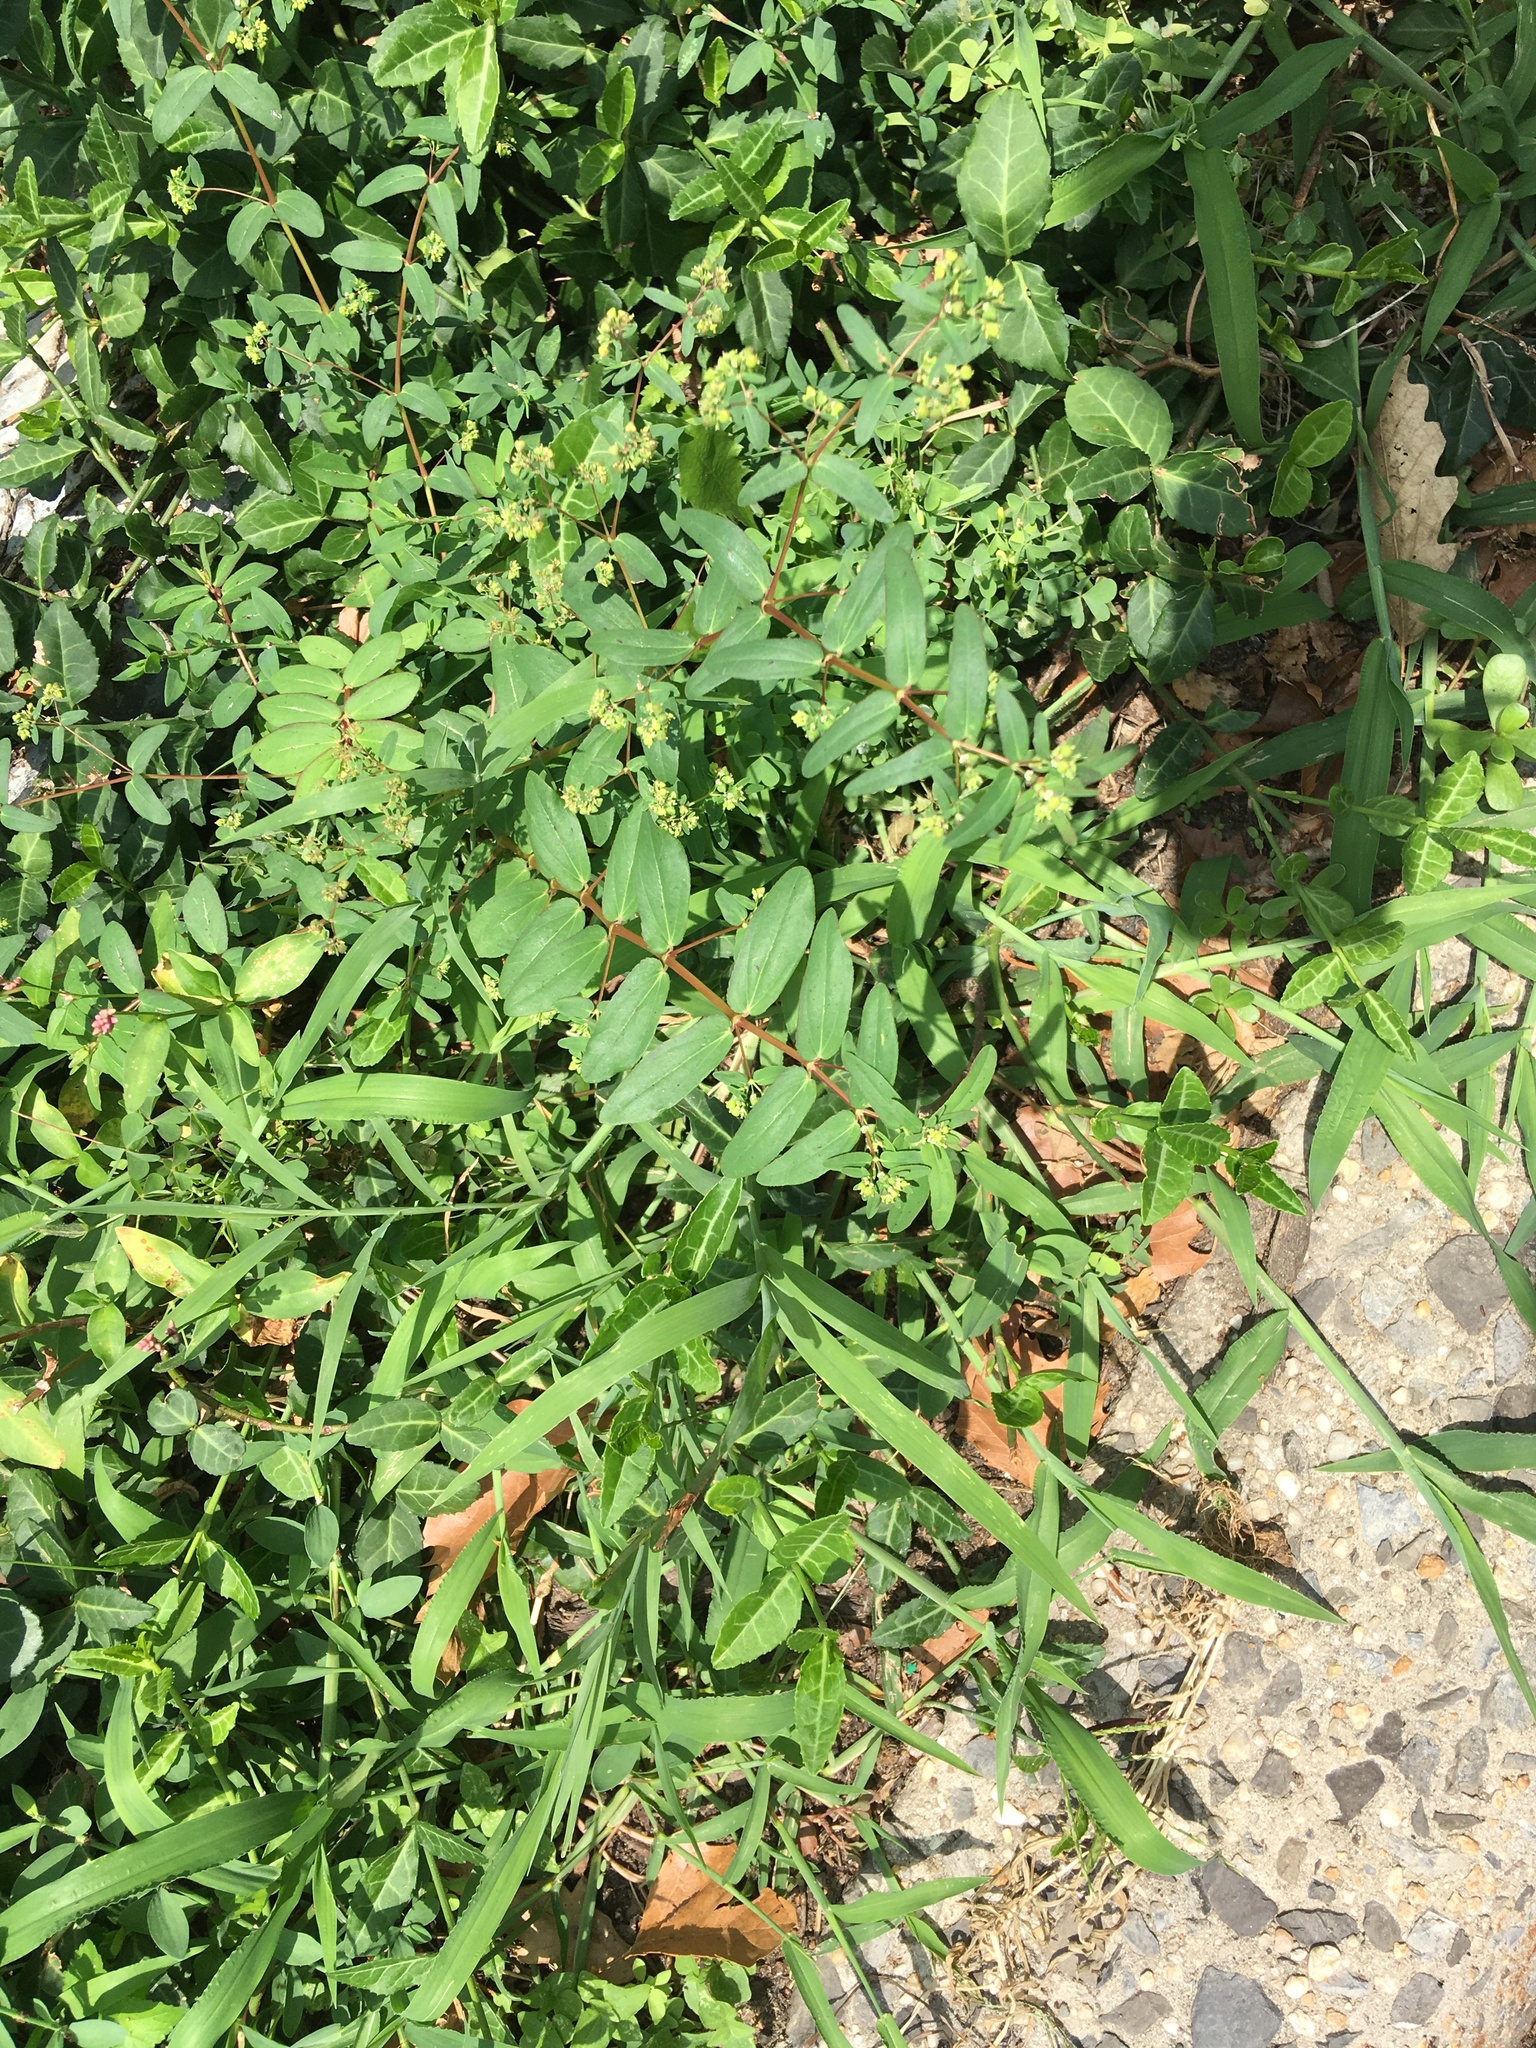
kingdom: Plantae
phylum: Tracheophyta
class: Magnoliopsida
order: Malpighiales
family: Euphorbiaceae
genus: Euphorbia
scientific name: Euphorbia hyssopifolia
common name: Hyssopleaf sandmat
